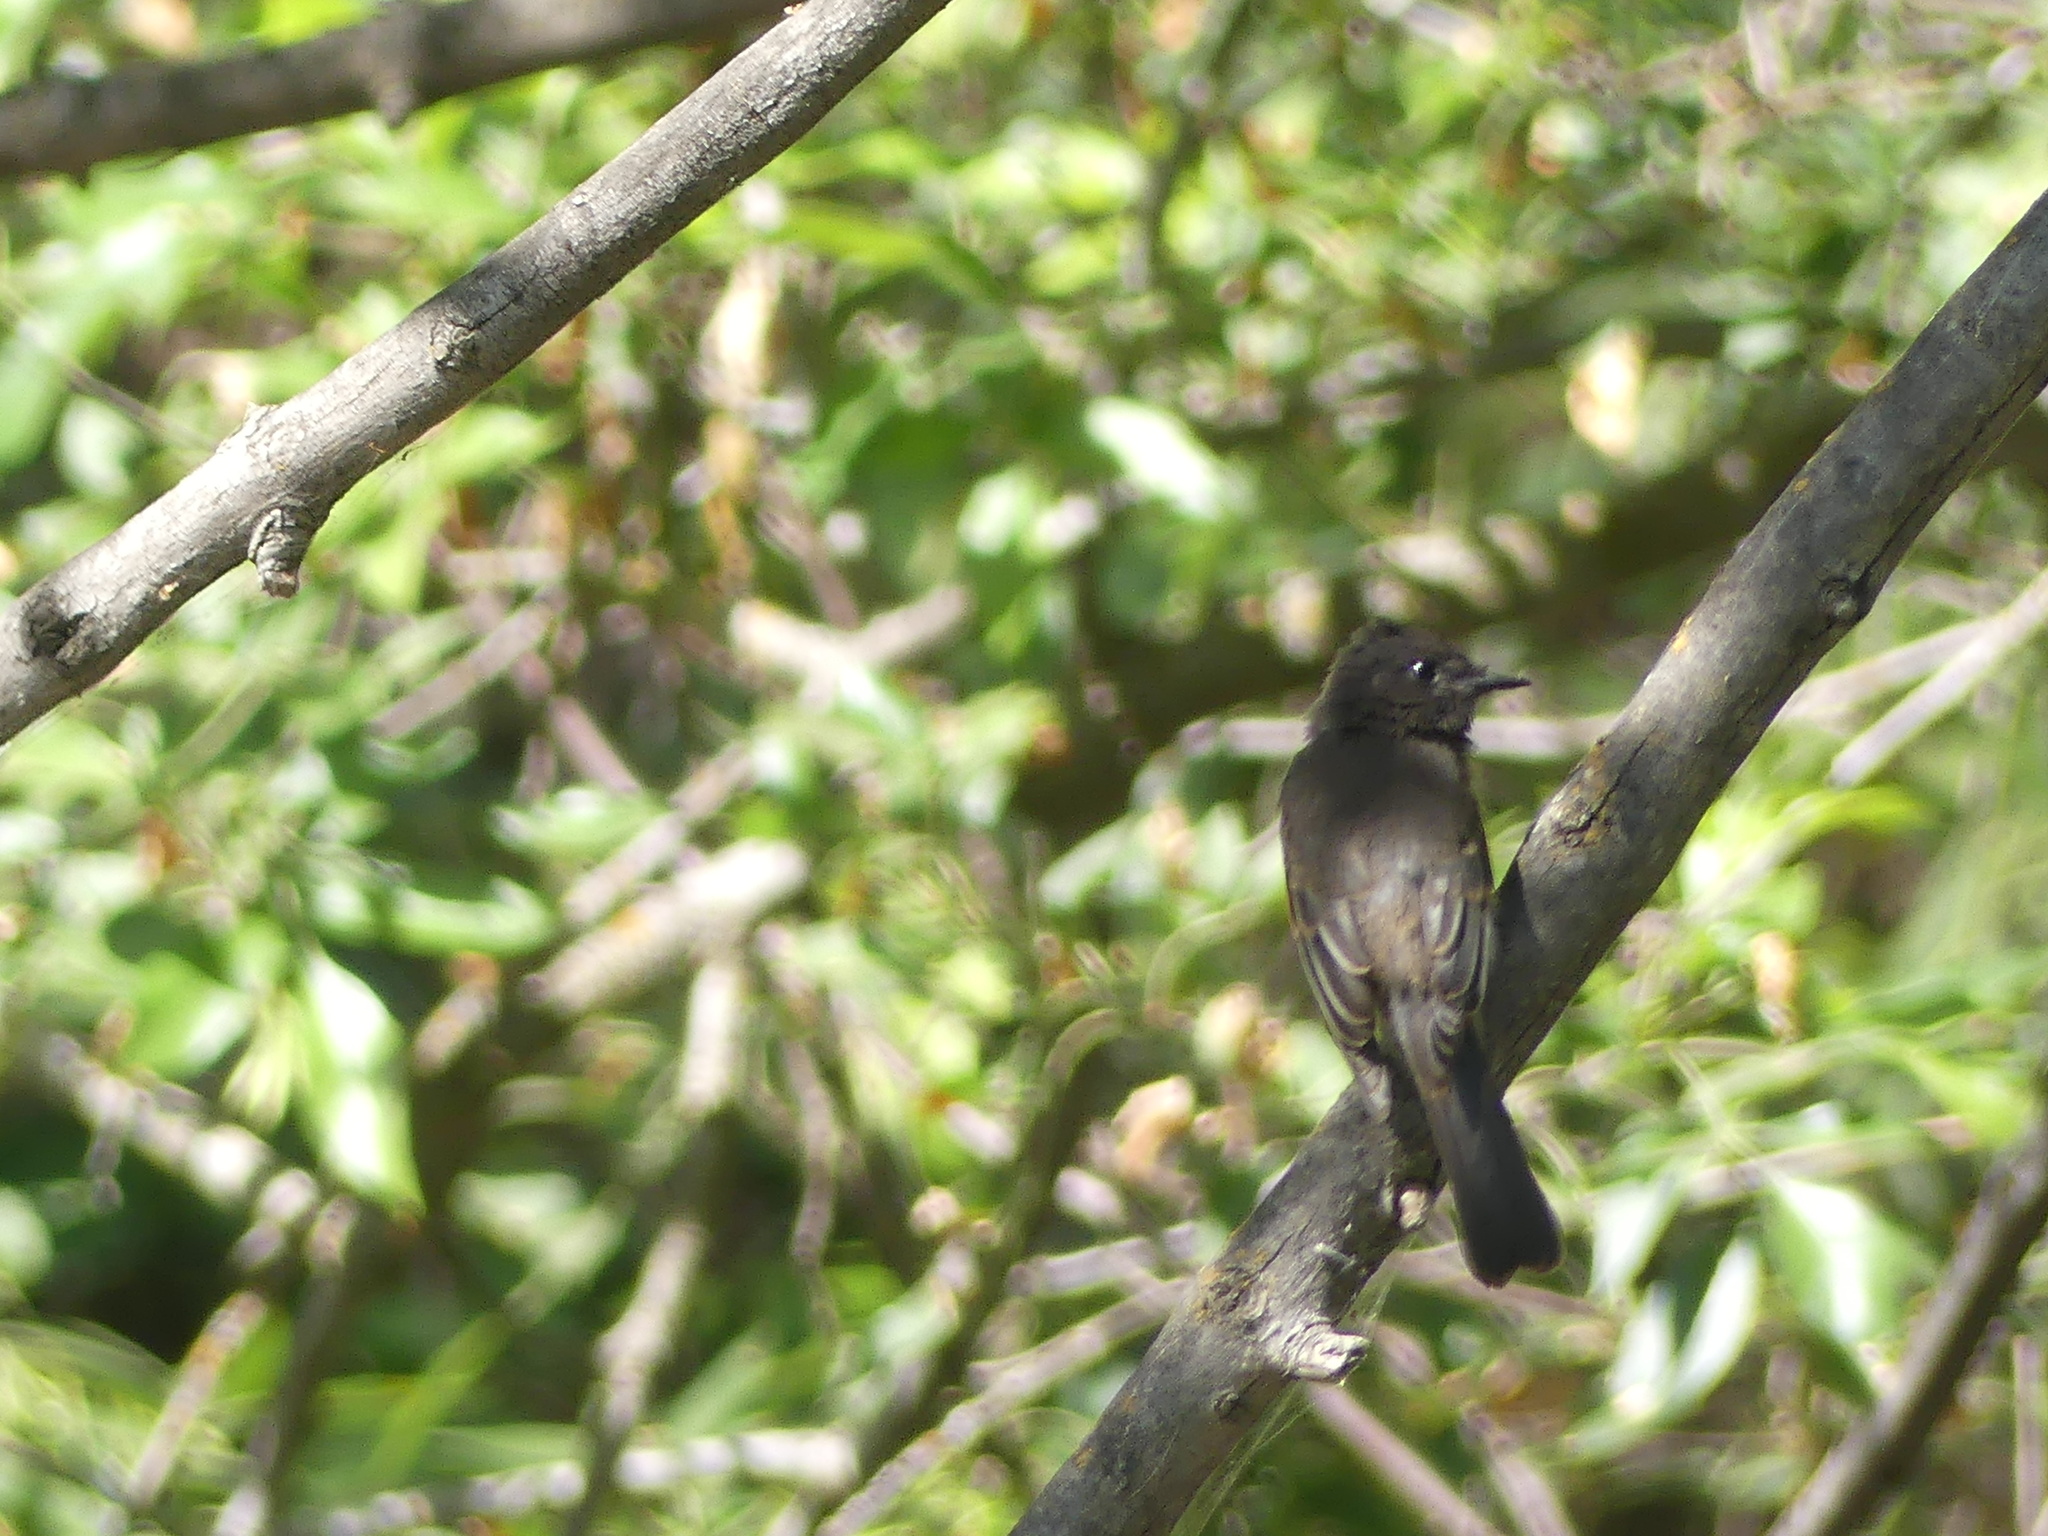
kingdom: Animalia
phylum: Chordata
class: Aves
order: Passeriformes
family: Tyrannidae
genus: Sayornis
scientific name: Sayornis nigricans
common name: Black phoebe
